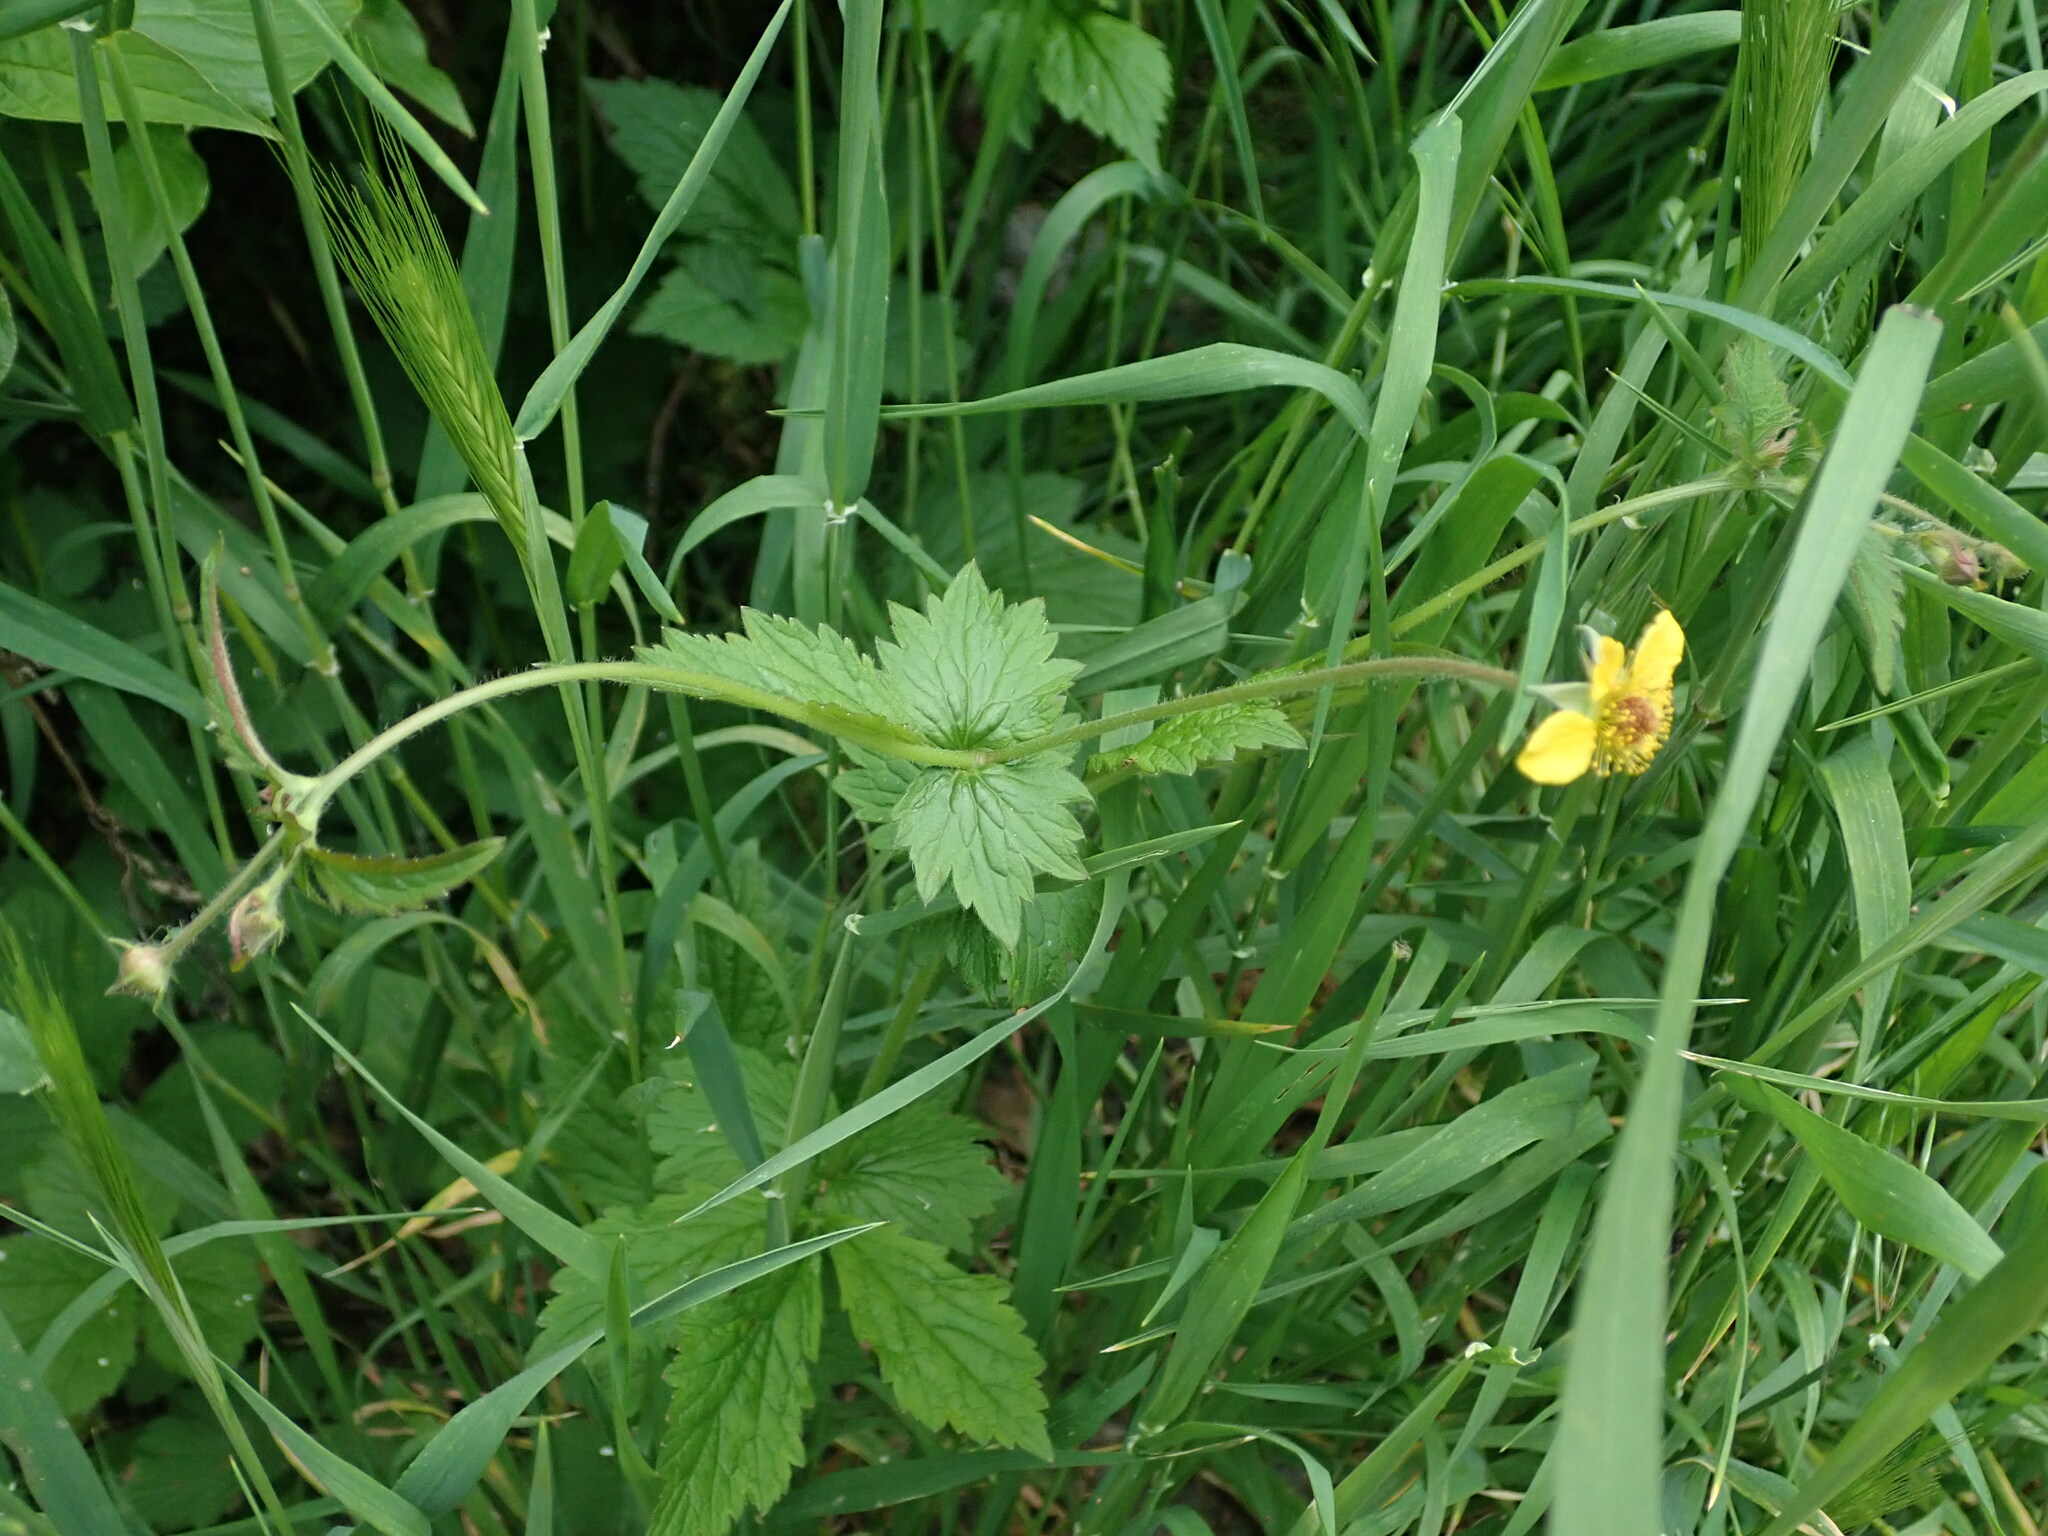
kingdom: Plantae
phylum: Tracheophyta
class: Magnoliopsida
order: Rosales
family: Rosaceae
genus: Geum
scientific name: Geum urbanum
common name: Wood avens
